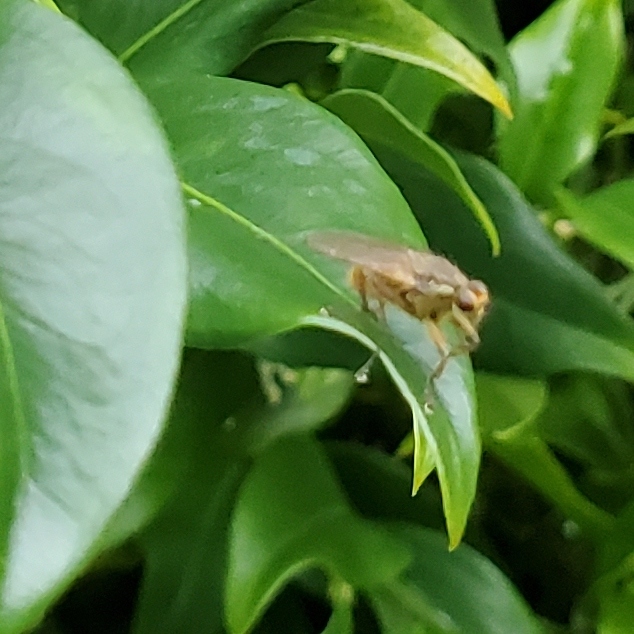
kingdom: Animalia
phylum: Arthropoda
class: Insecta
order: Diptera
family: Scathophagidae
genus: Scathophaga
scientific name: Scathophaga stercoraria
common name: Yellow dung fly
